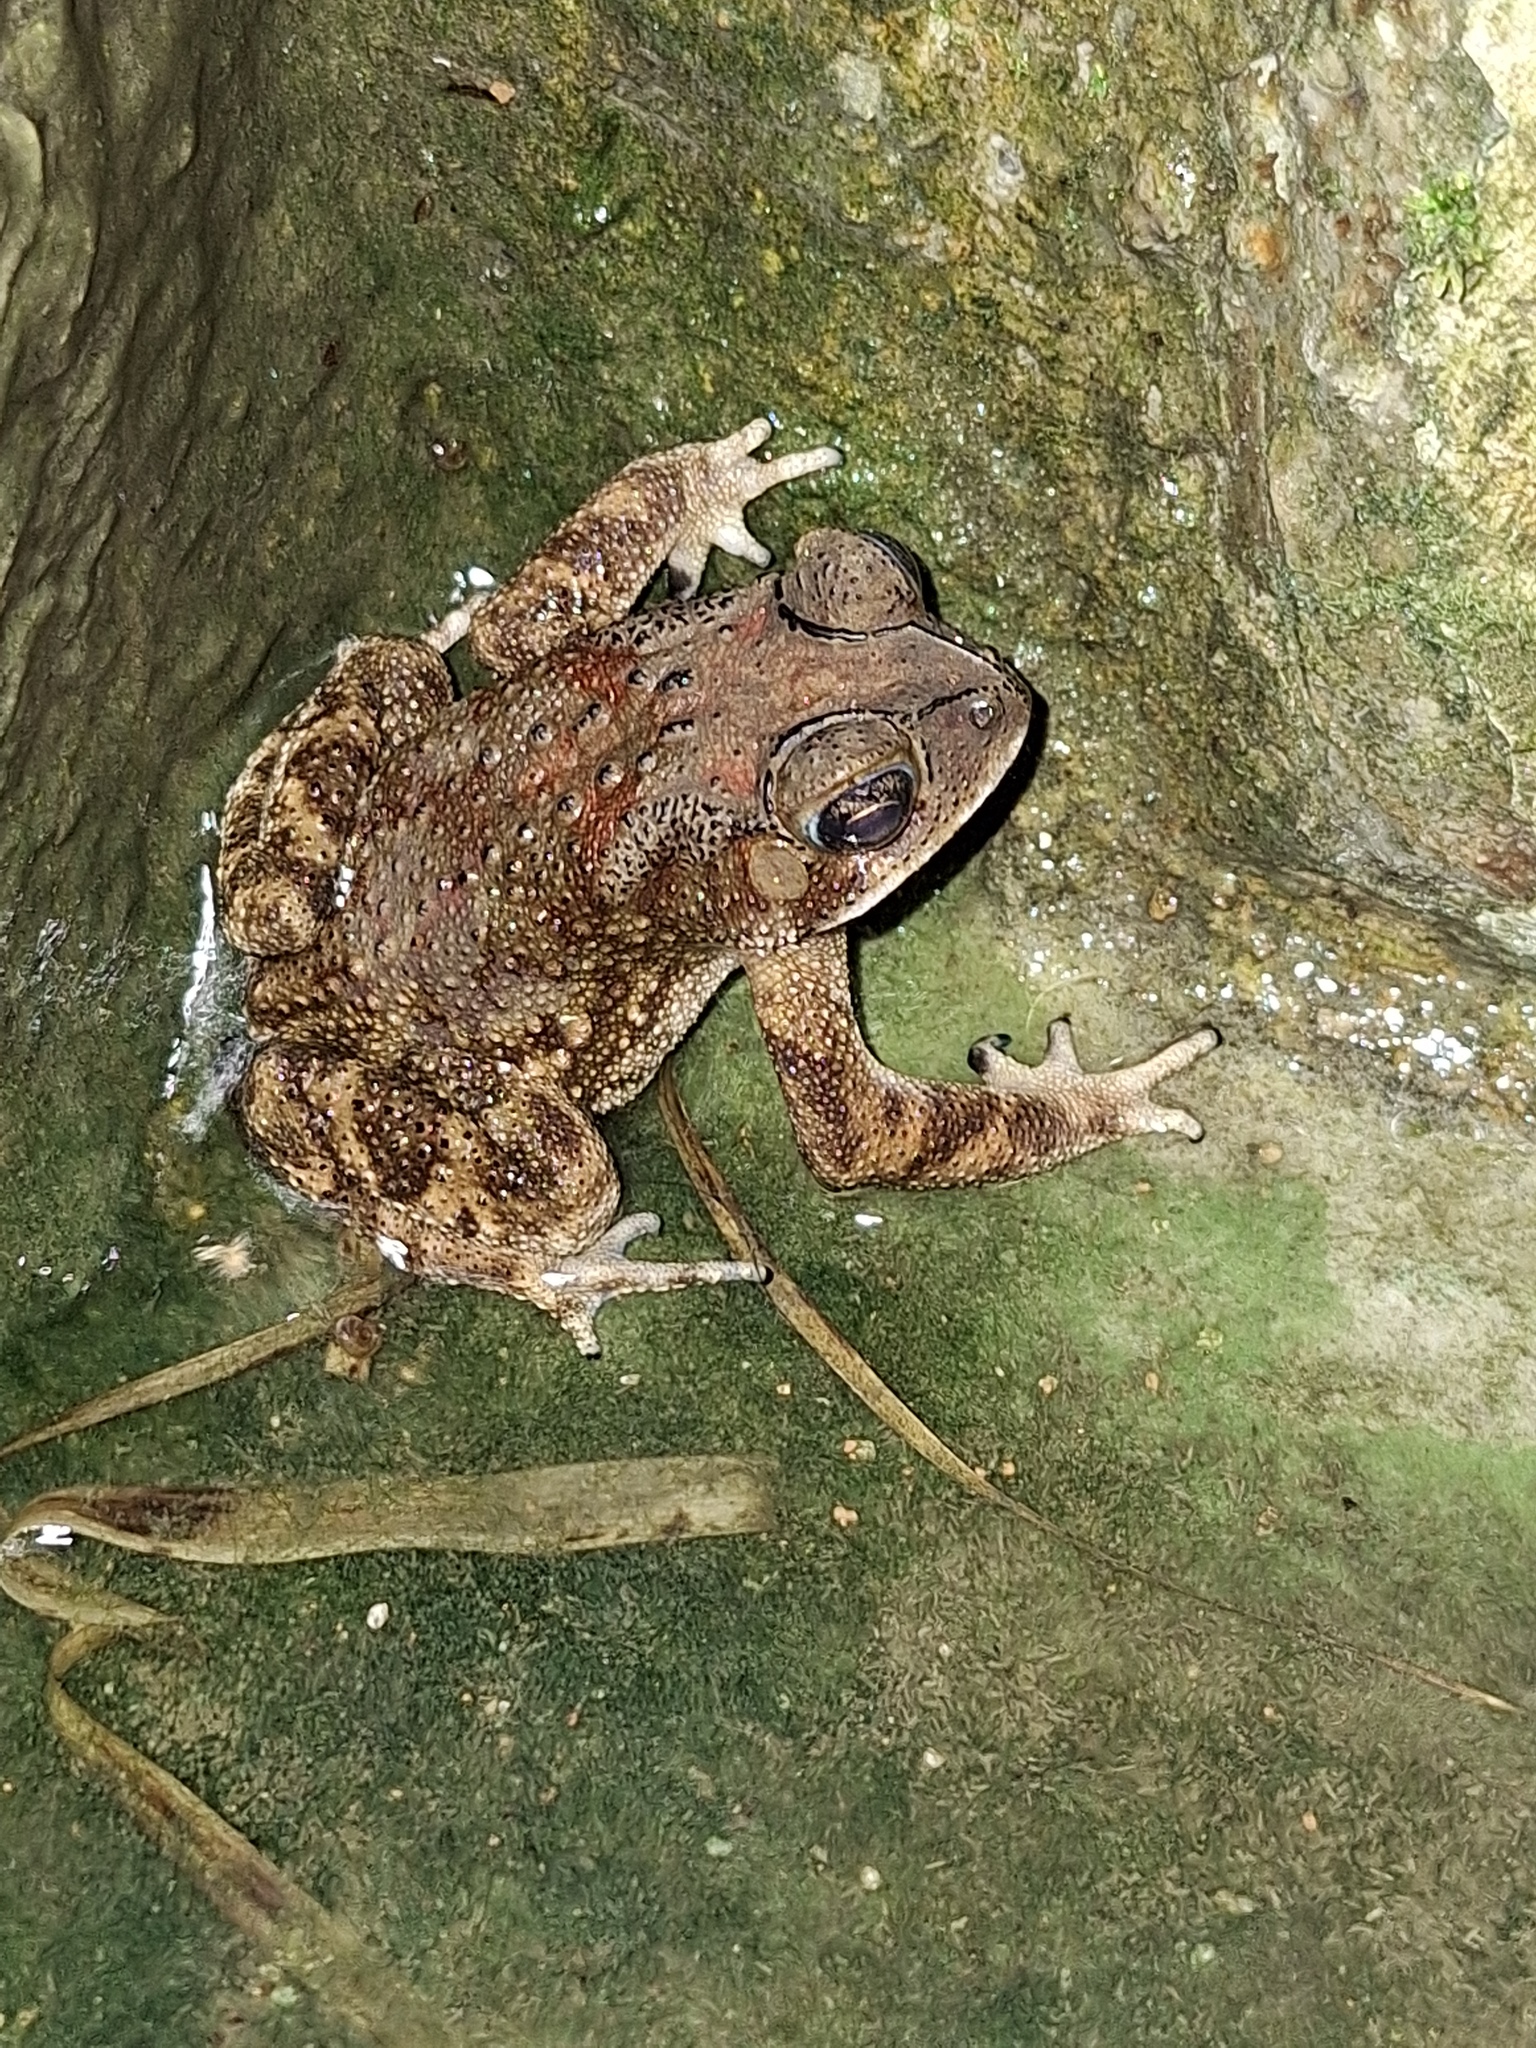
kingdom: Animalia
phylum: Chordata
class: Amphibia
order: Anura
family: Bufonidae
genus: Duttaphrynus
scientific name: Duttaphrynus melanostictus
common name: Common sunda toad
